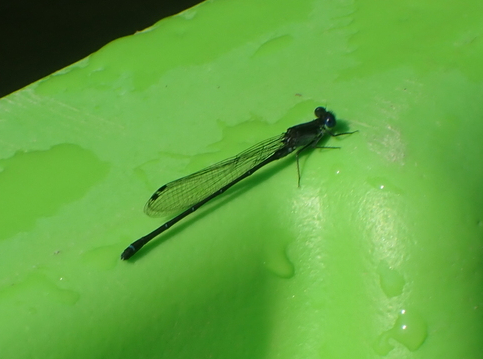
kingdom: Animalia
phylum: Arthropoda
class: Insecta
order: Odonata
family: Coenagrionidae
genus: Argia
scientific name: Argia translata
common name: Dusky dancer
